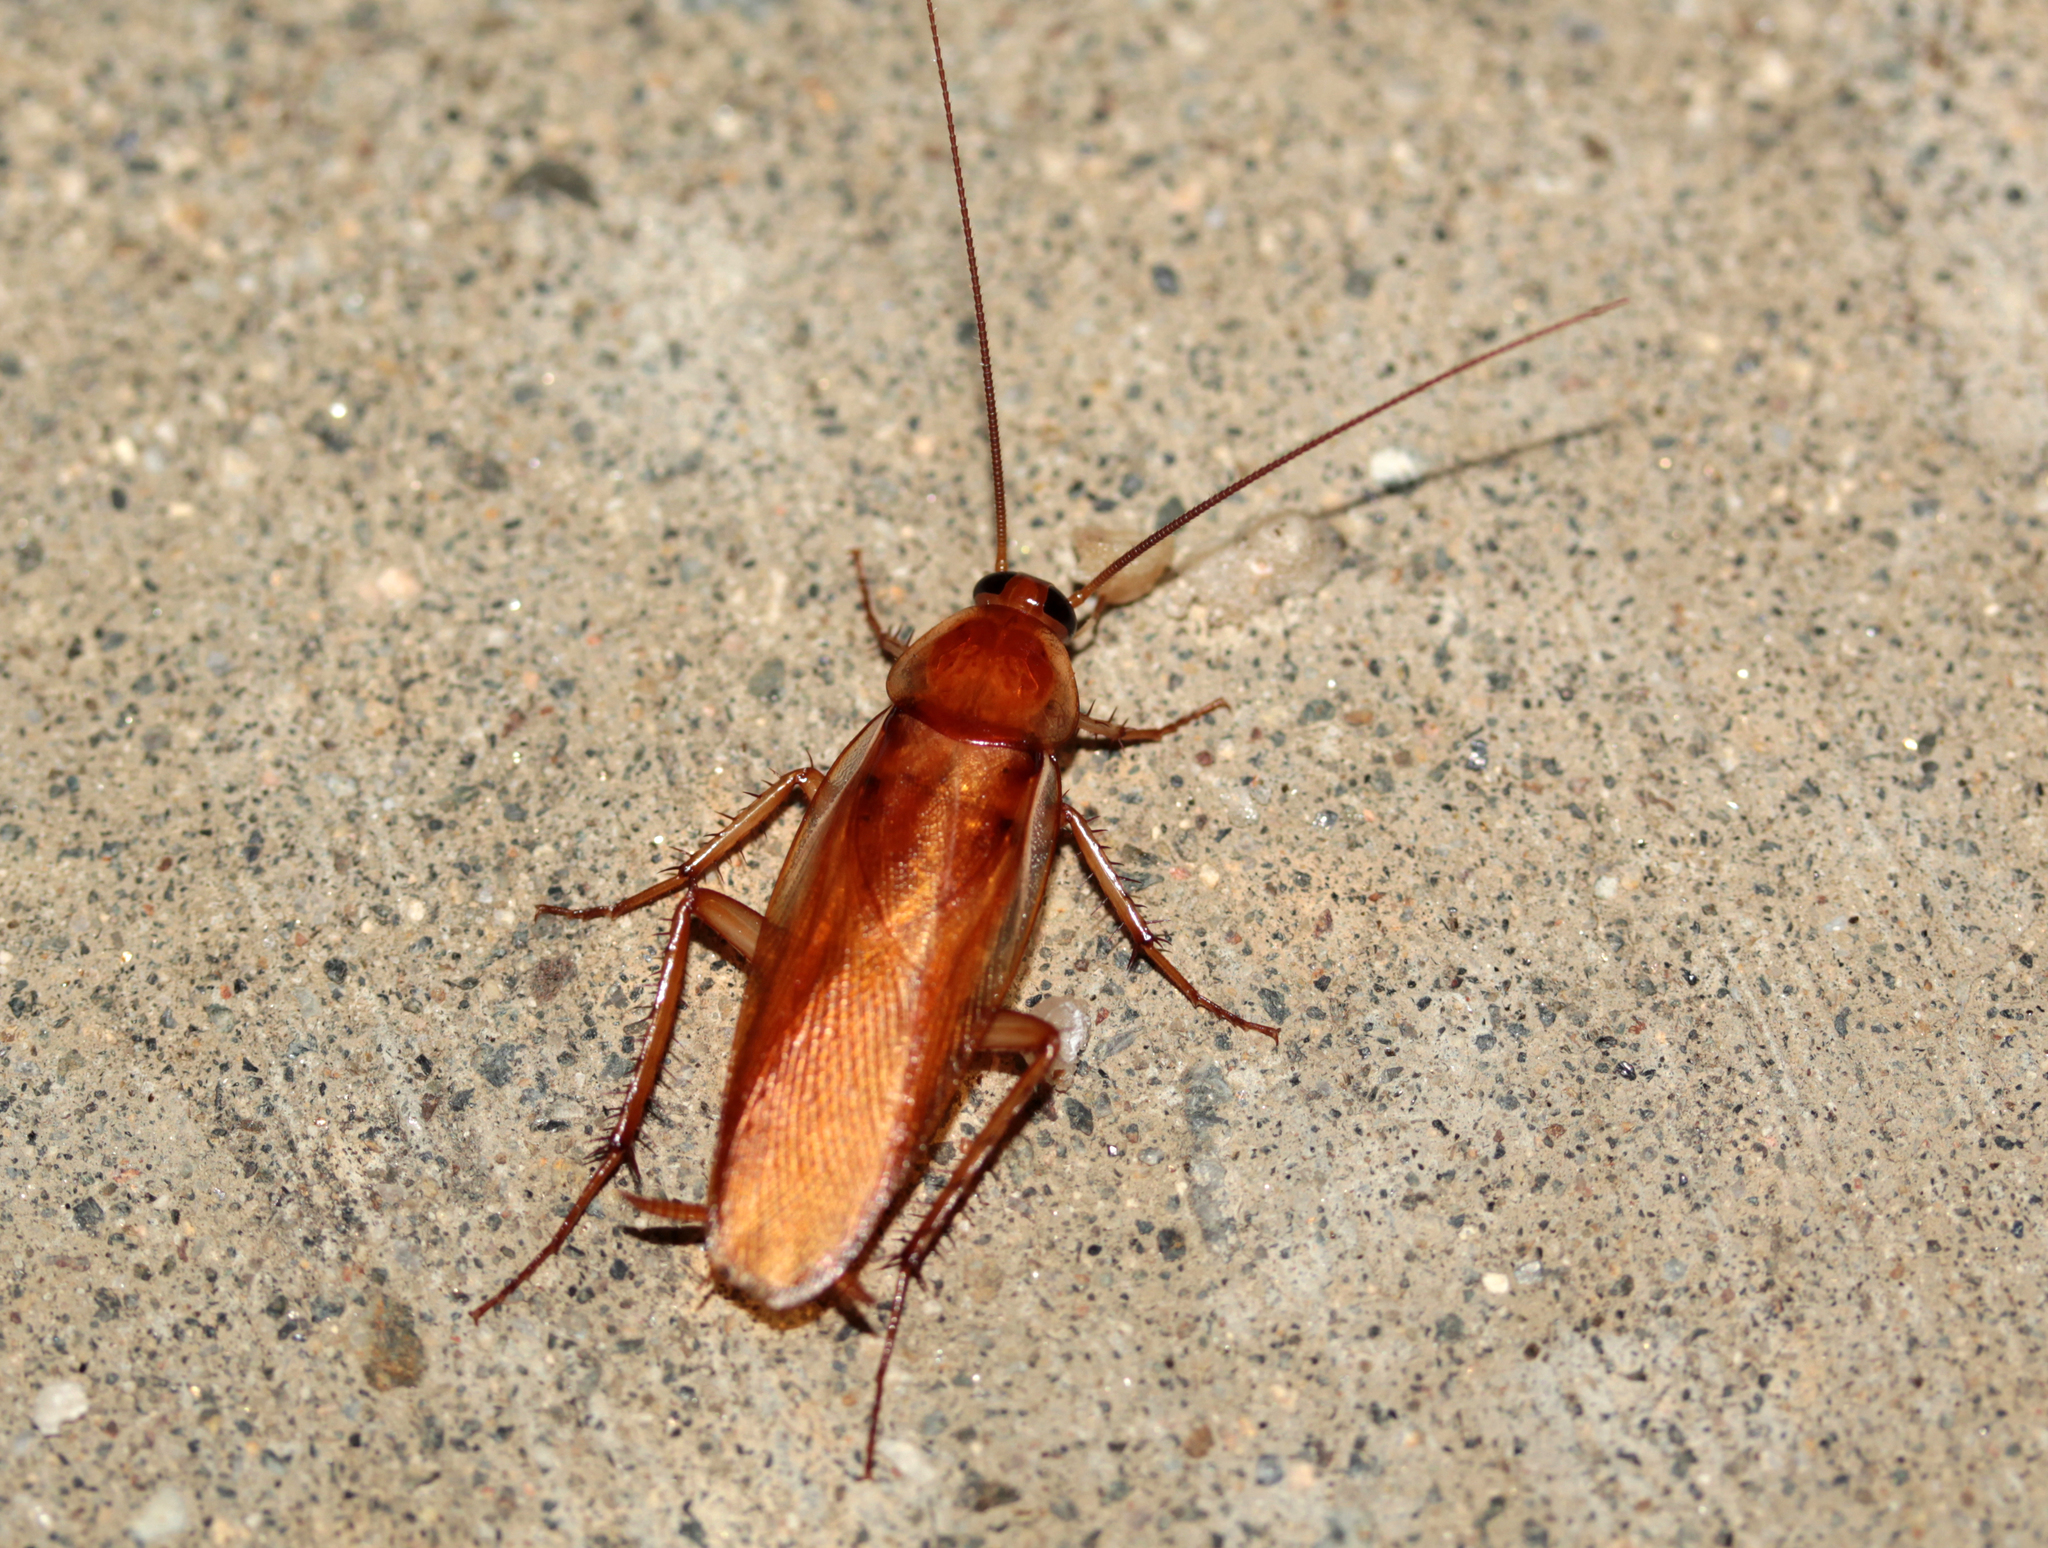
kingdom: Animalia
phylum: Arthropoda
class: Insecta
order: Blattodea
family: Blattidae
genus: Periplaneta
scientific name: Periplaneta lateralis
